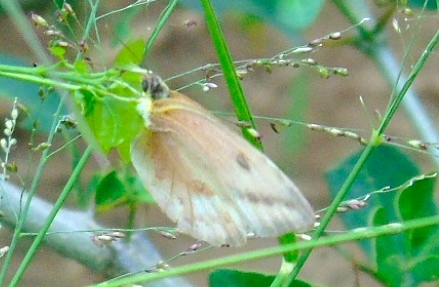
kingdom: Animalia
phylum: Arthropoda
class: Insecta
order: Lepidoptera
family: Pieridae
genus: Phoebis
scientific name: Phoebis agarithe
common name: Large orange sulphur
